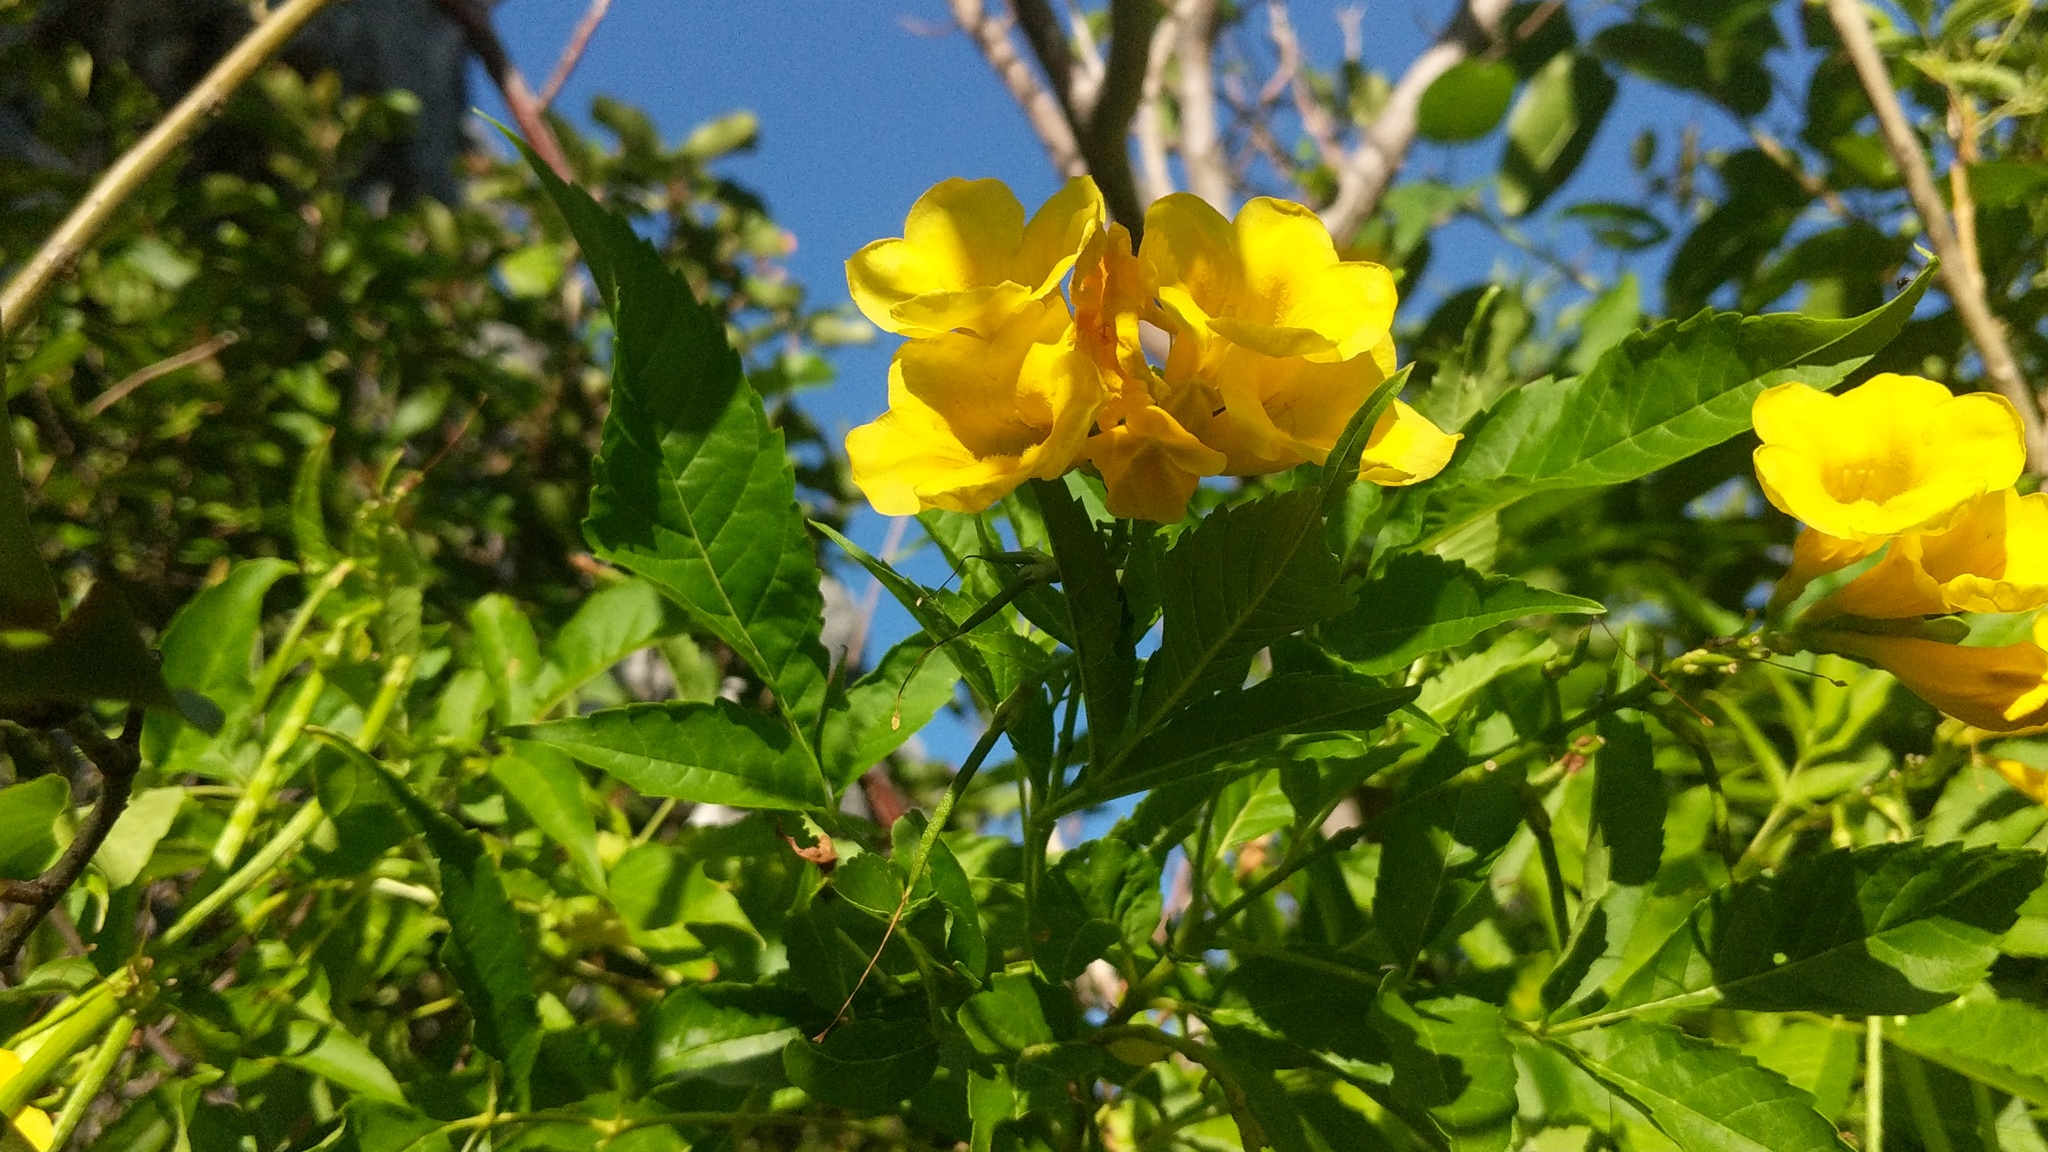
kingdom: Plantae
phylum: Tracheophyta
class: Magnoliopsida
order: Lamiales
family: Bignoniaceae
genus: Tecoma
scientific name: Tecoma stans
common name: Yellow trumpetbush
